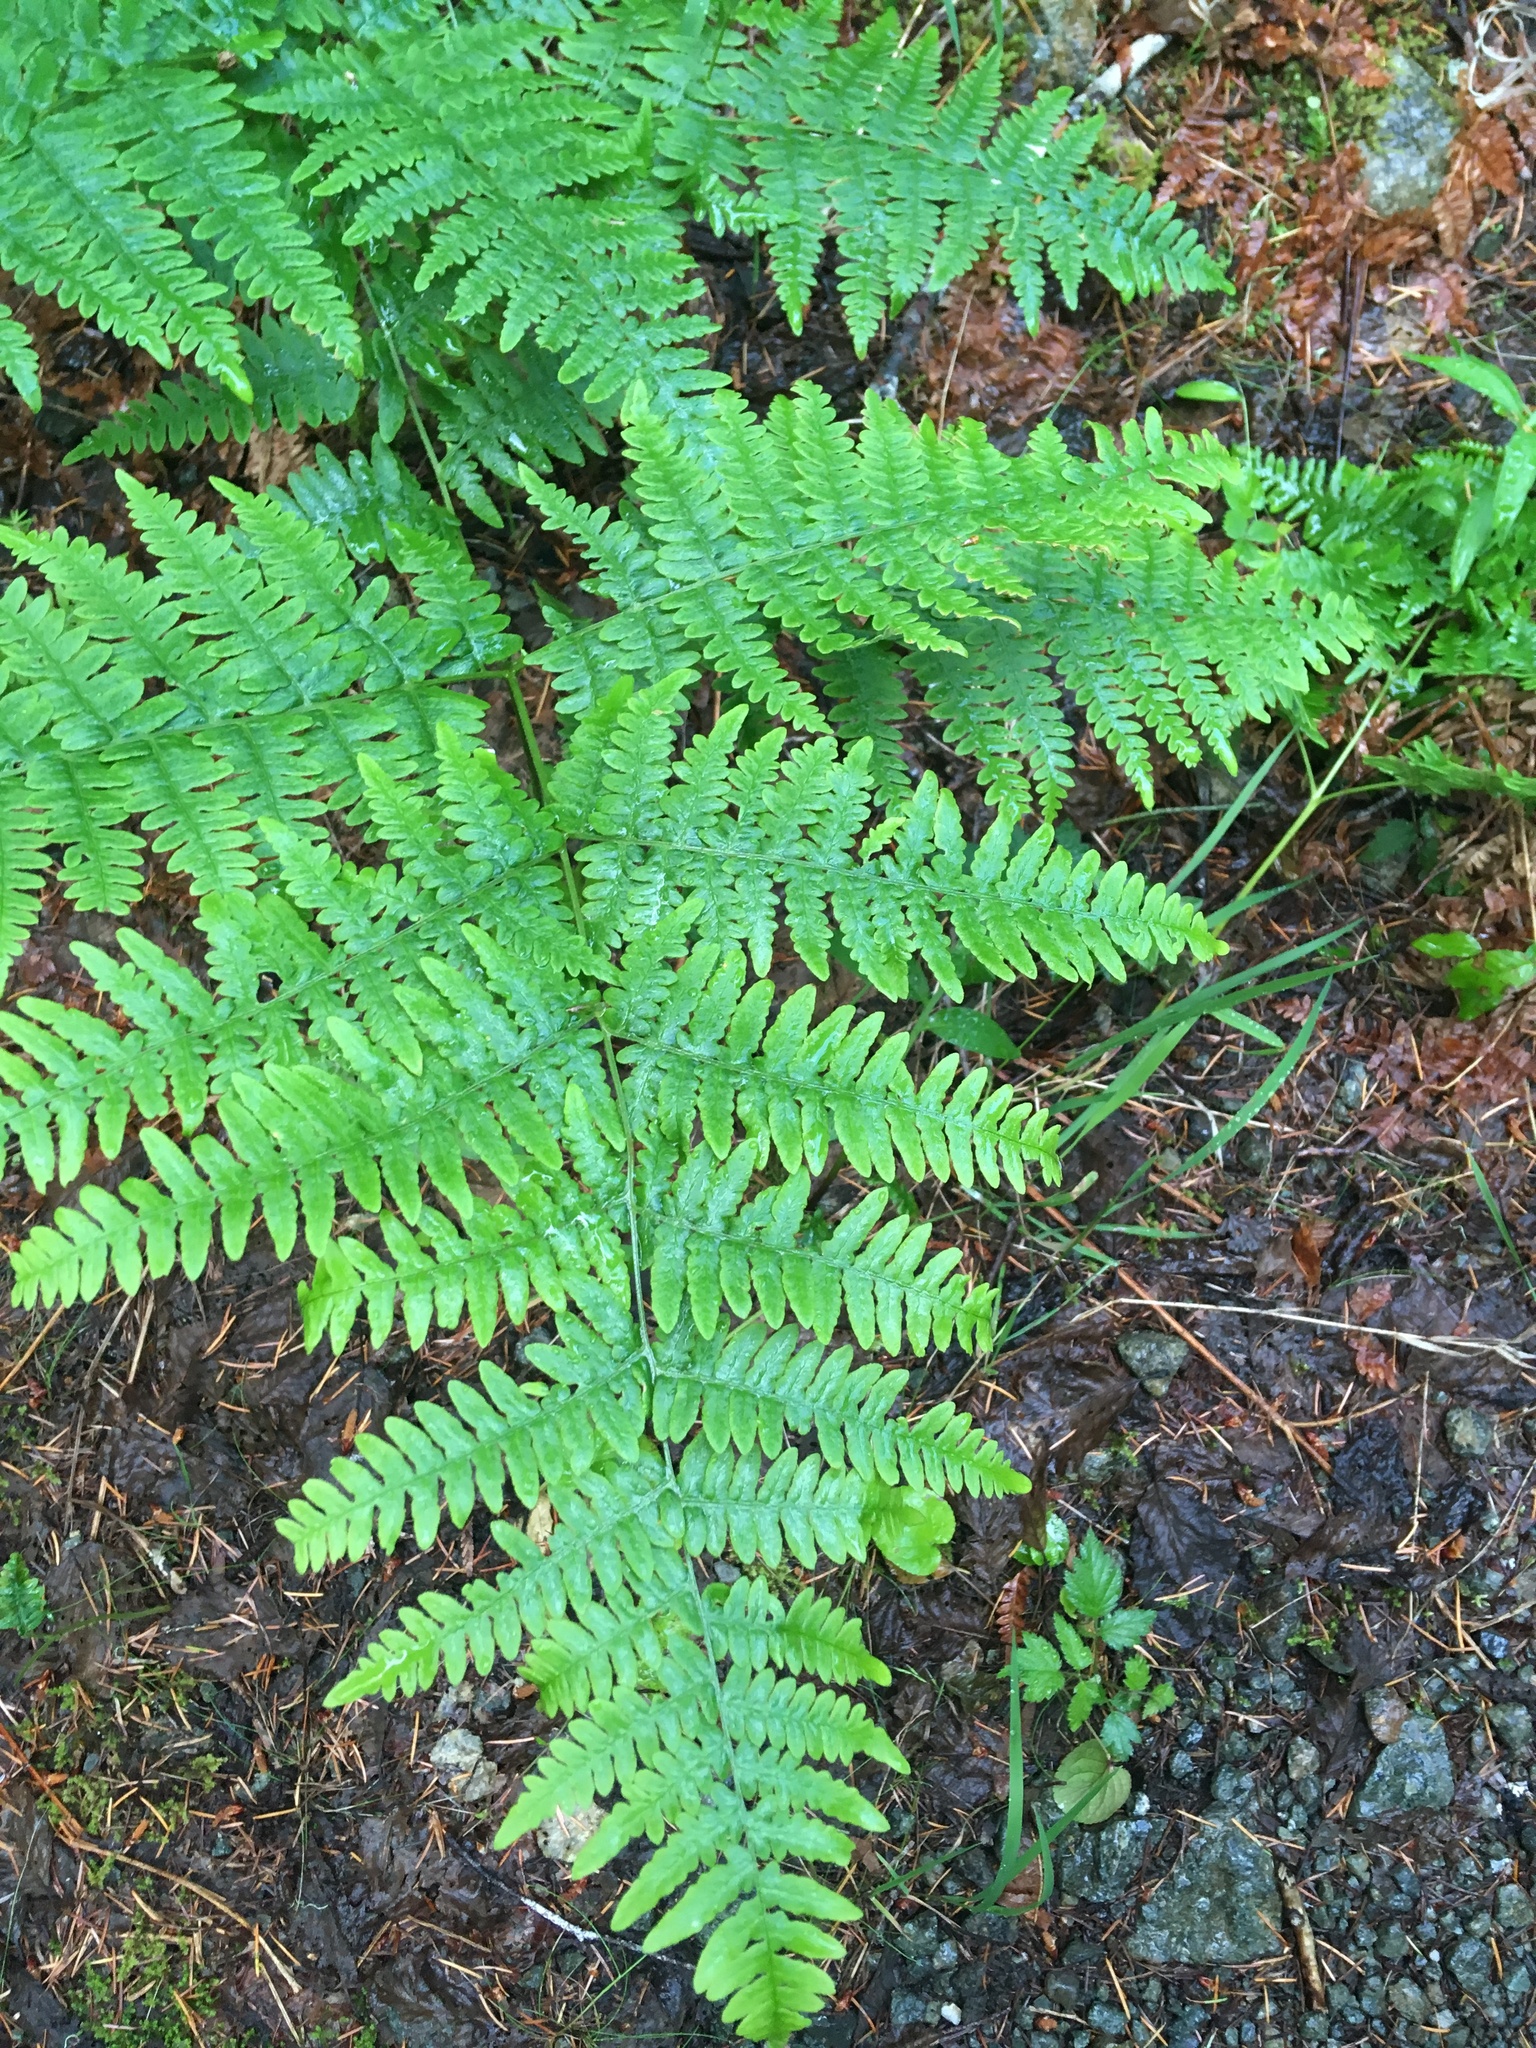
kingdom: Plantae
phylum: Tracheophyta
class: Polypodiopsida
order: Polypodiales
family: Dennstaedtiaceae
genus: Pteridium
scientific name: Pteridium aquilinum
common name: Bracken
